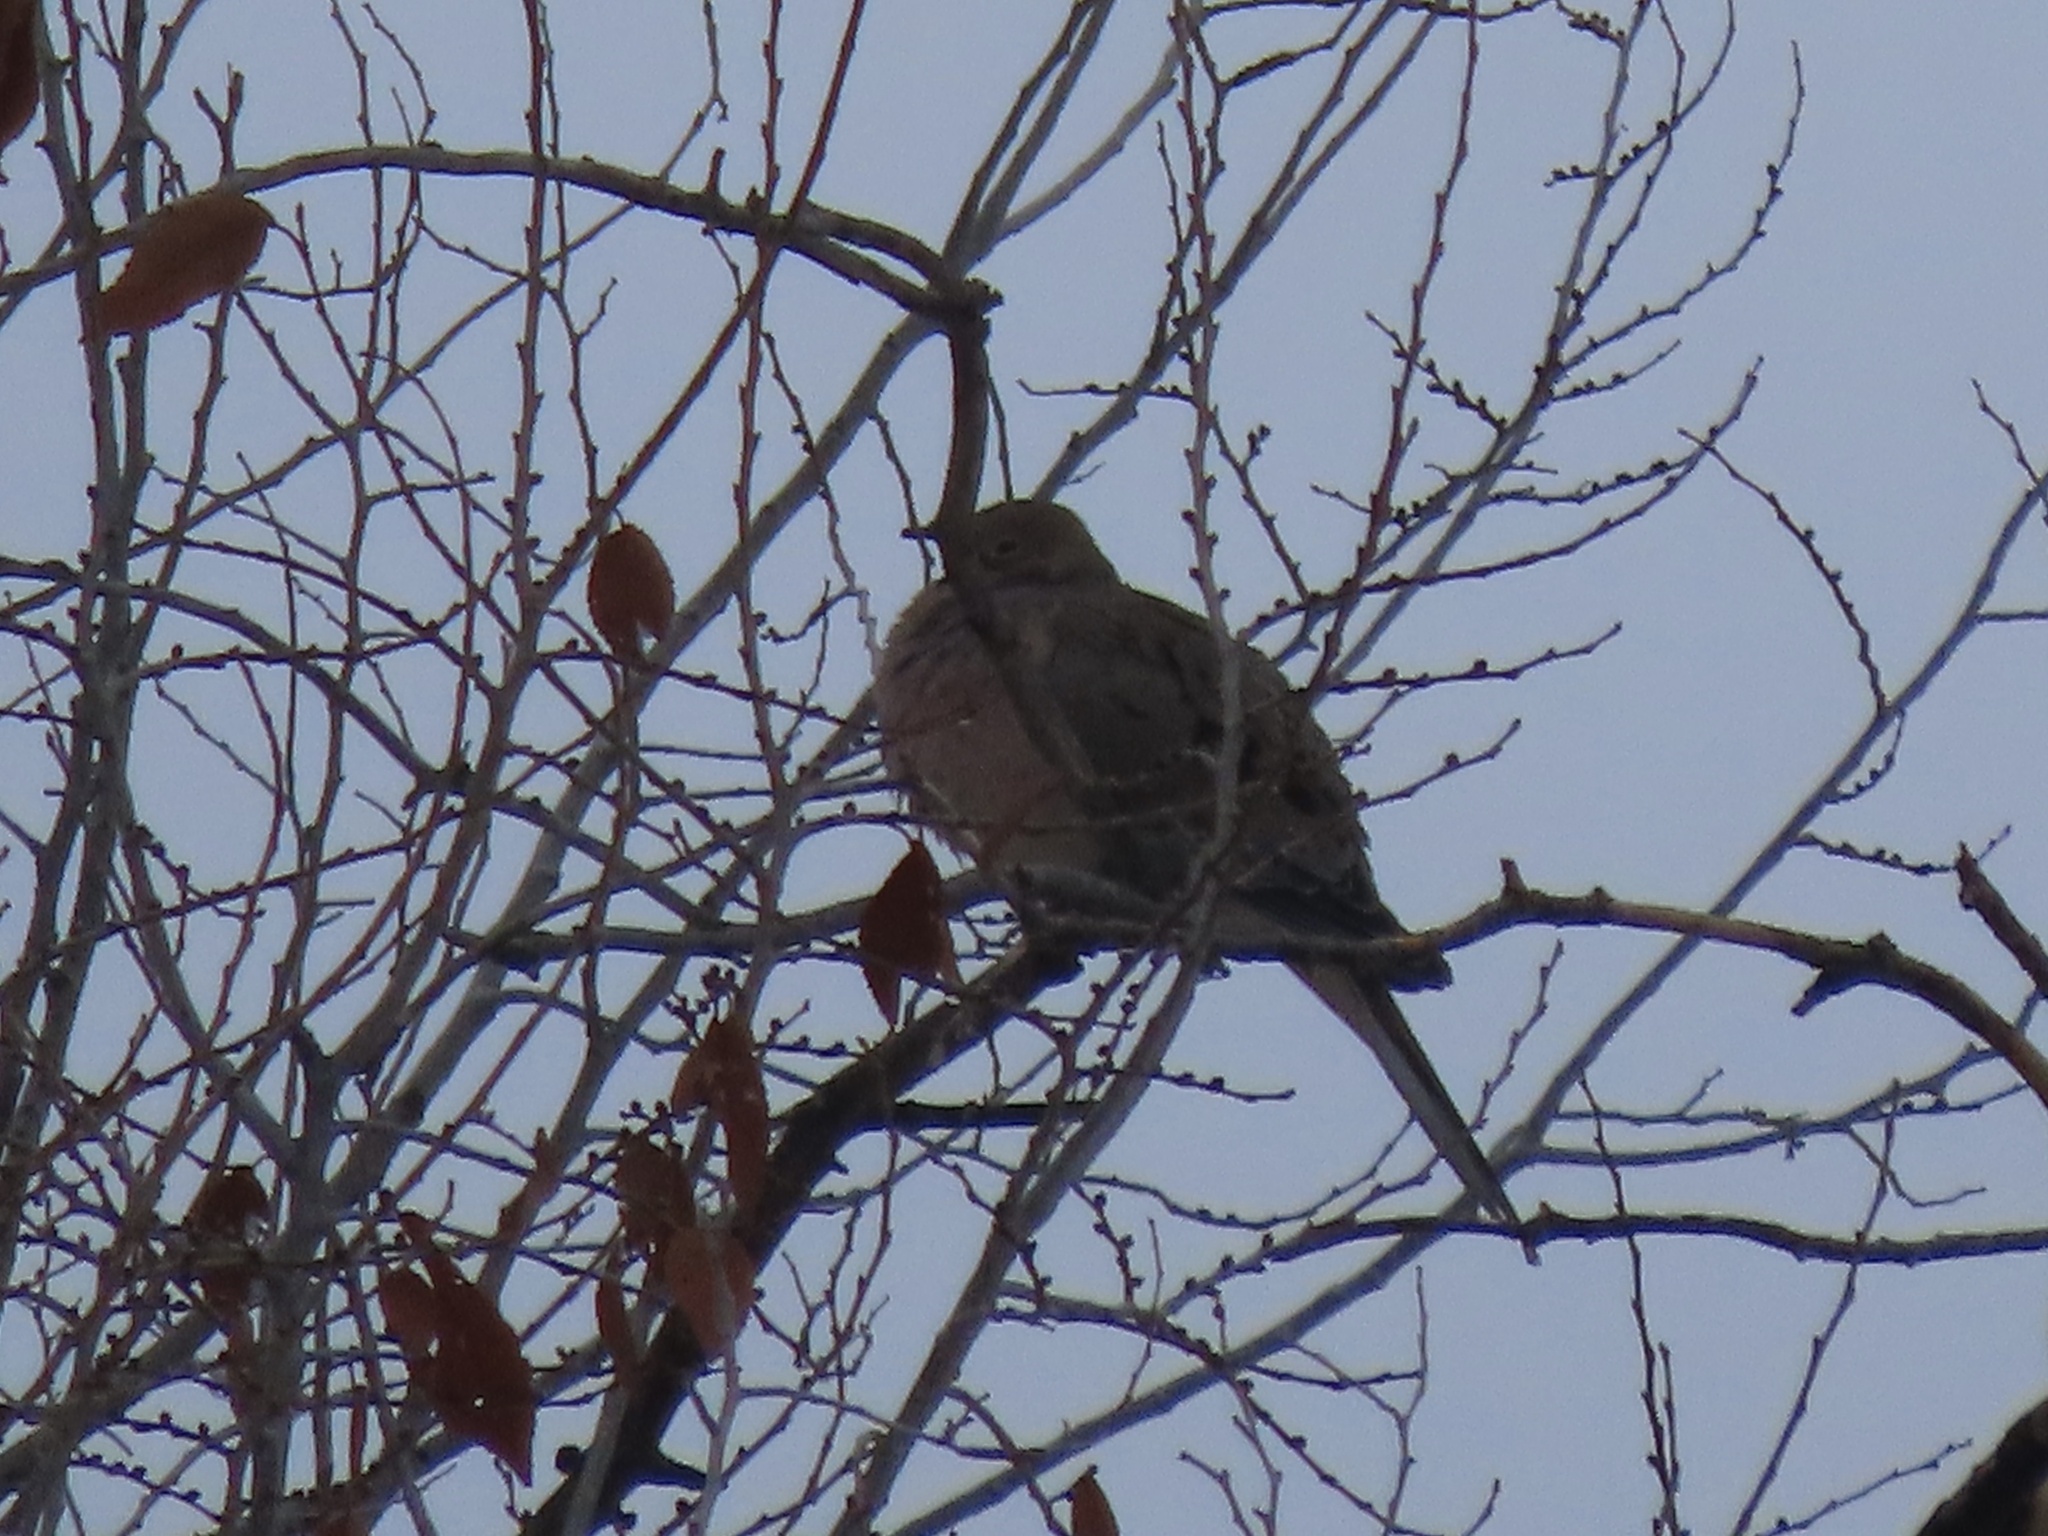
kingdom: Animalia
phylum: Chordata
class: Aves
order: Columbiformes
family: Columbidae
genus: Zenaida
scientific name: Zenaida macroura
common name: Mourning dove
